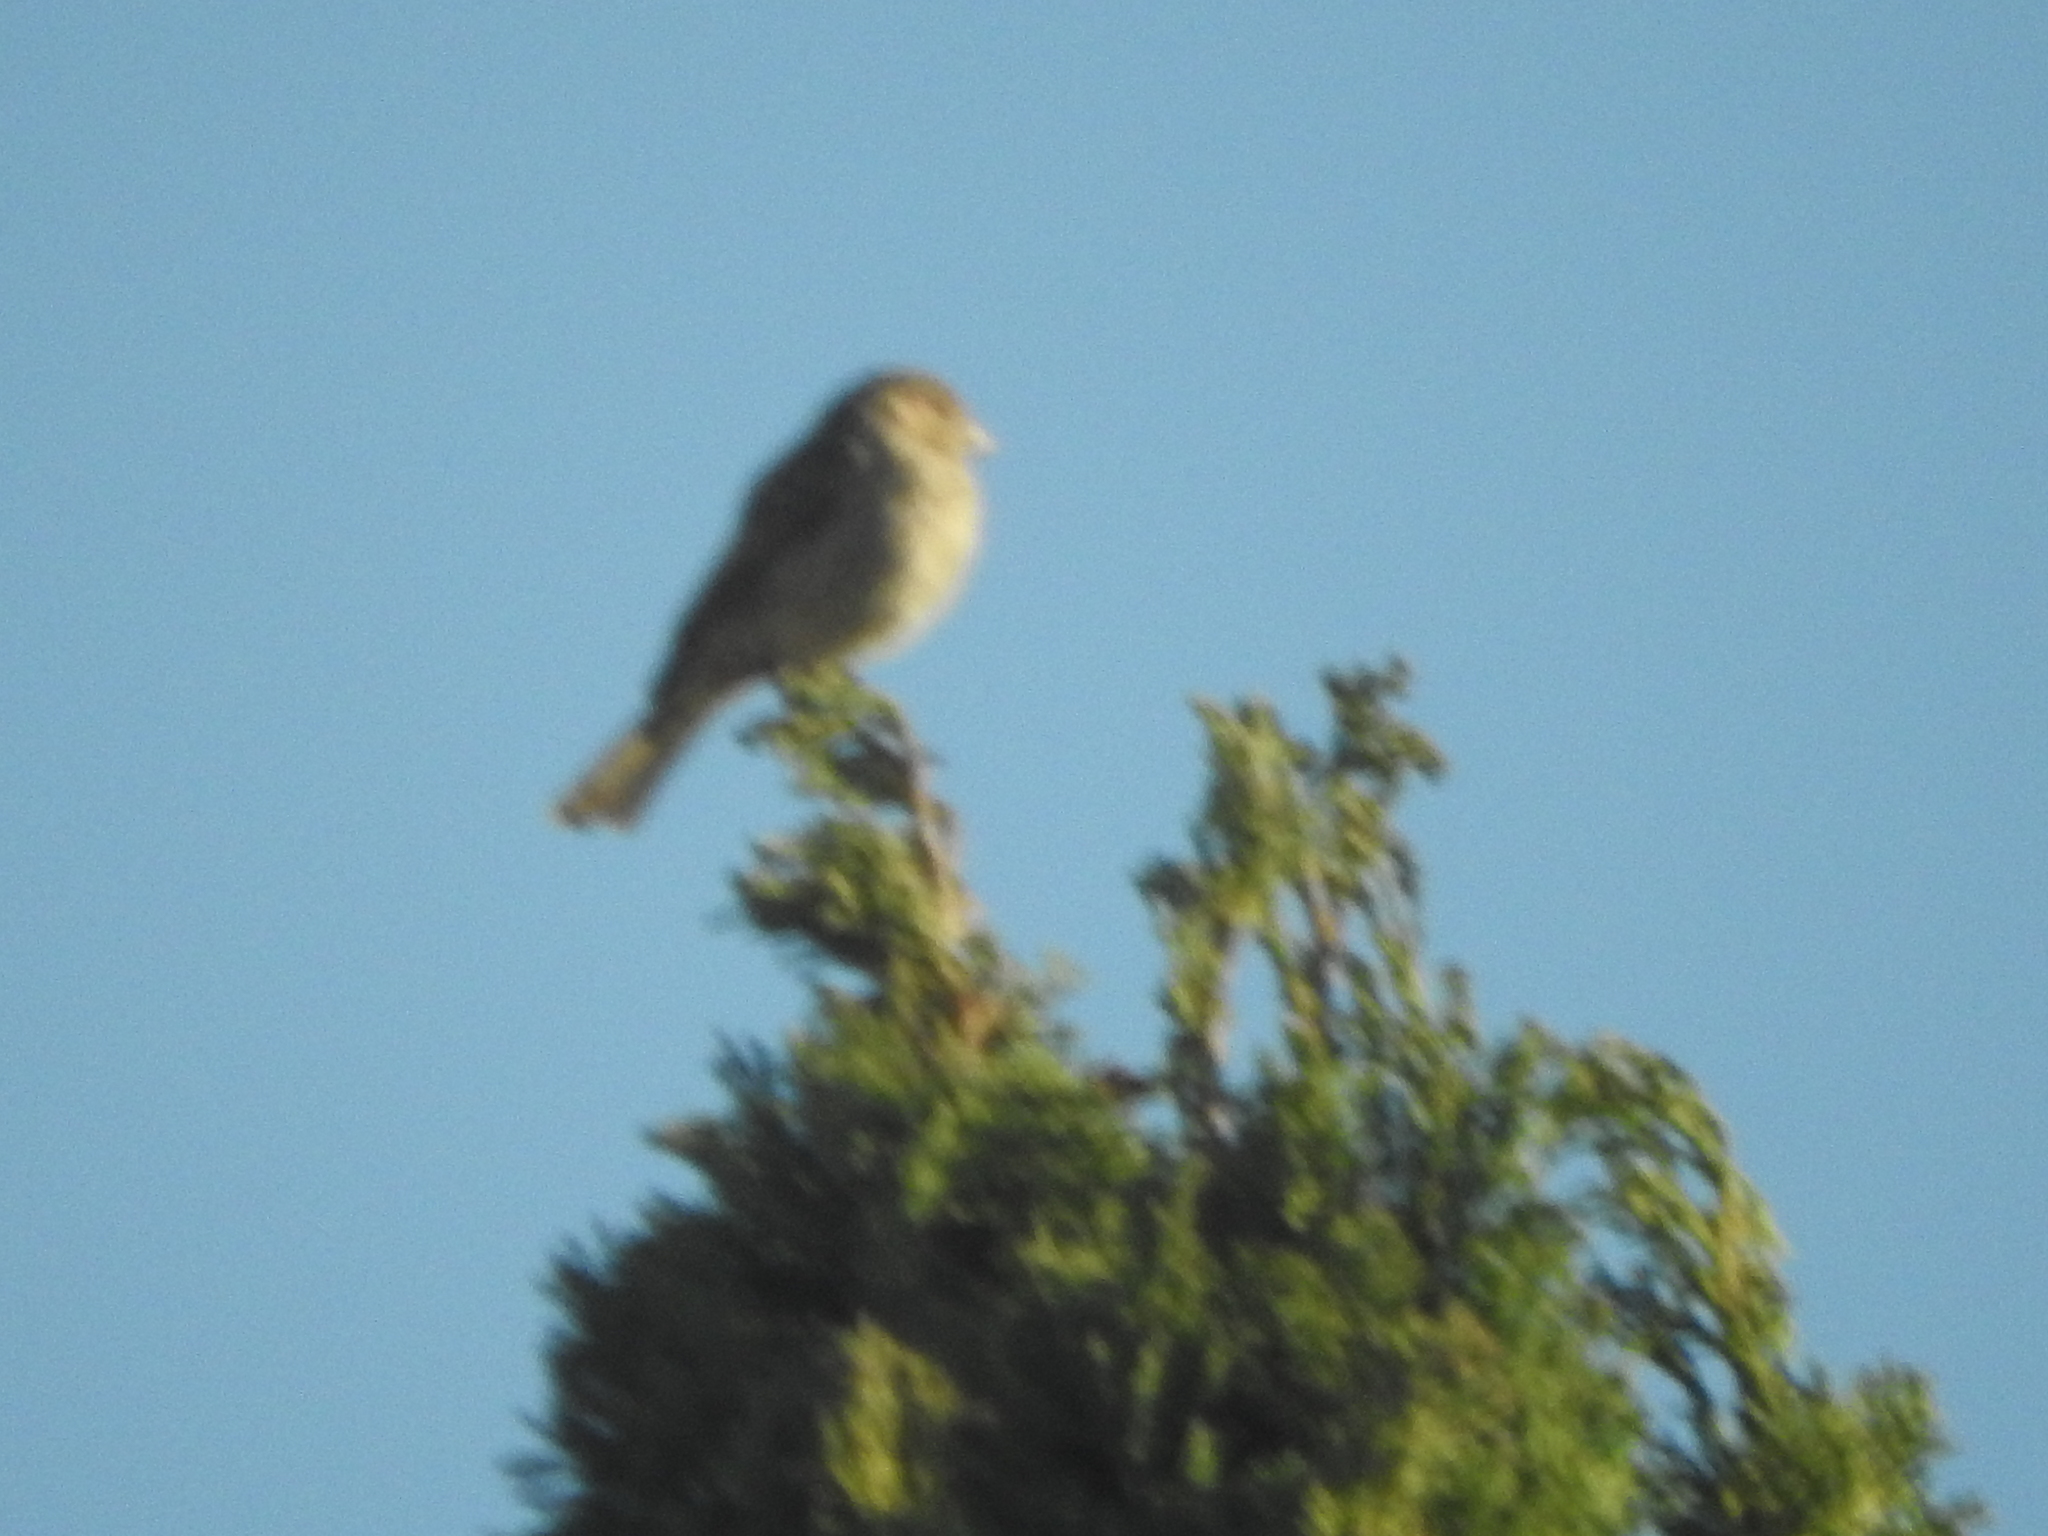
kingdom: Animalia
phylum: Chordata
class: Aves
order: Passeriformes
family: Fringillidae
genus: Haemorhous
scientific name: Haemorhous mexicanus
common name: House finch
